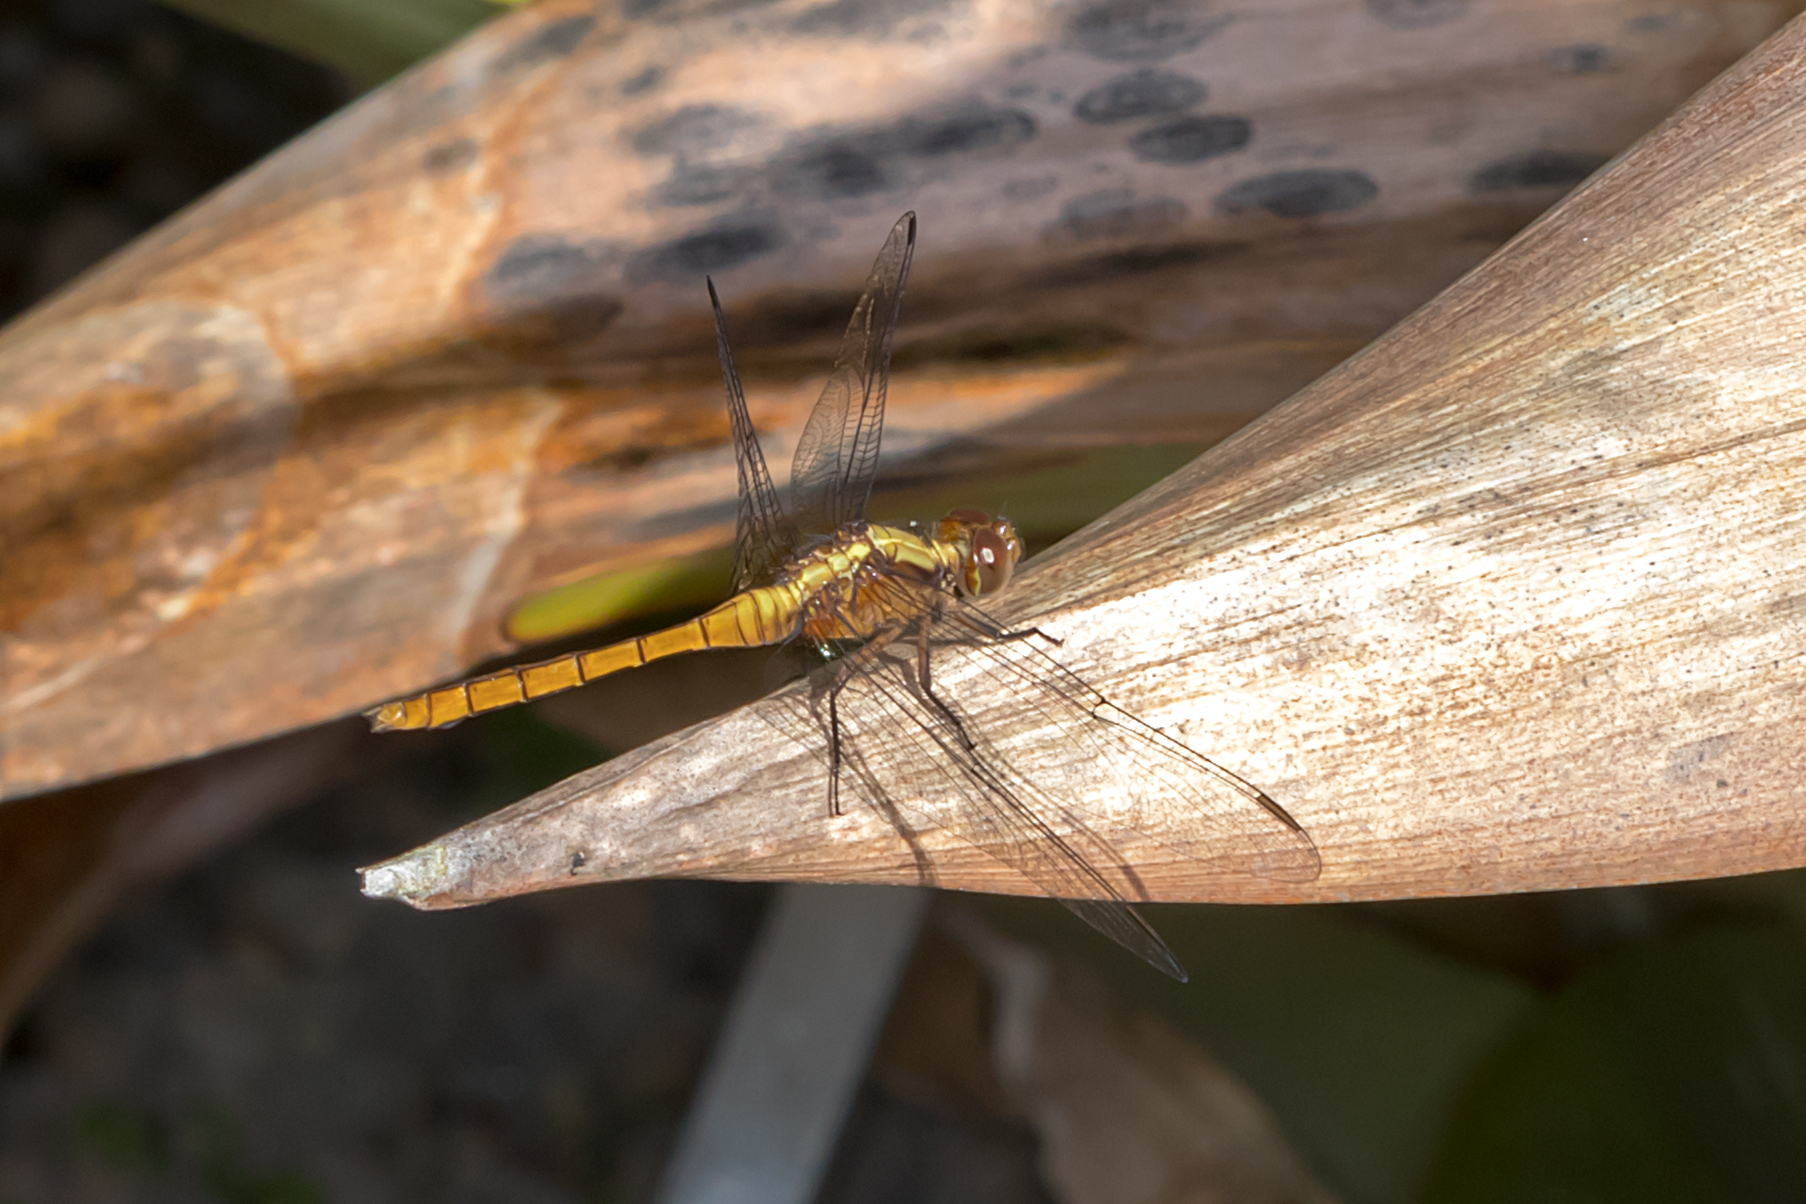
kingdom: Animalia
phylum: Arthropoda
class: Insecta
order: Odonata
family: Libellulidae
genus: Orthetrum
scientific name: Orthetrum villosovittatum
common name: Firery skimmer
